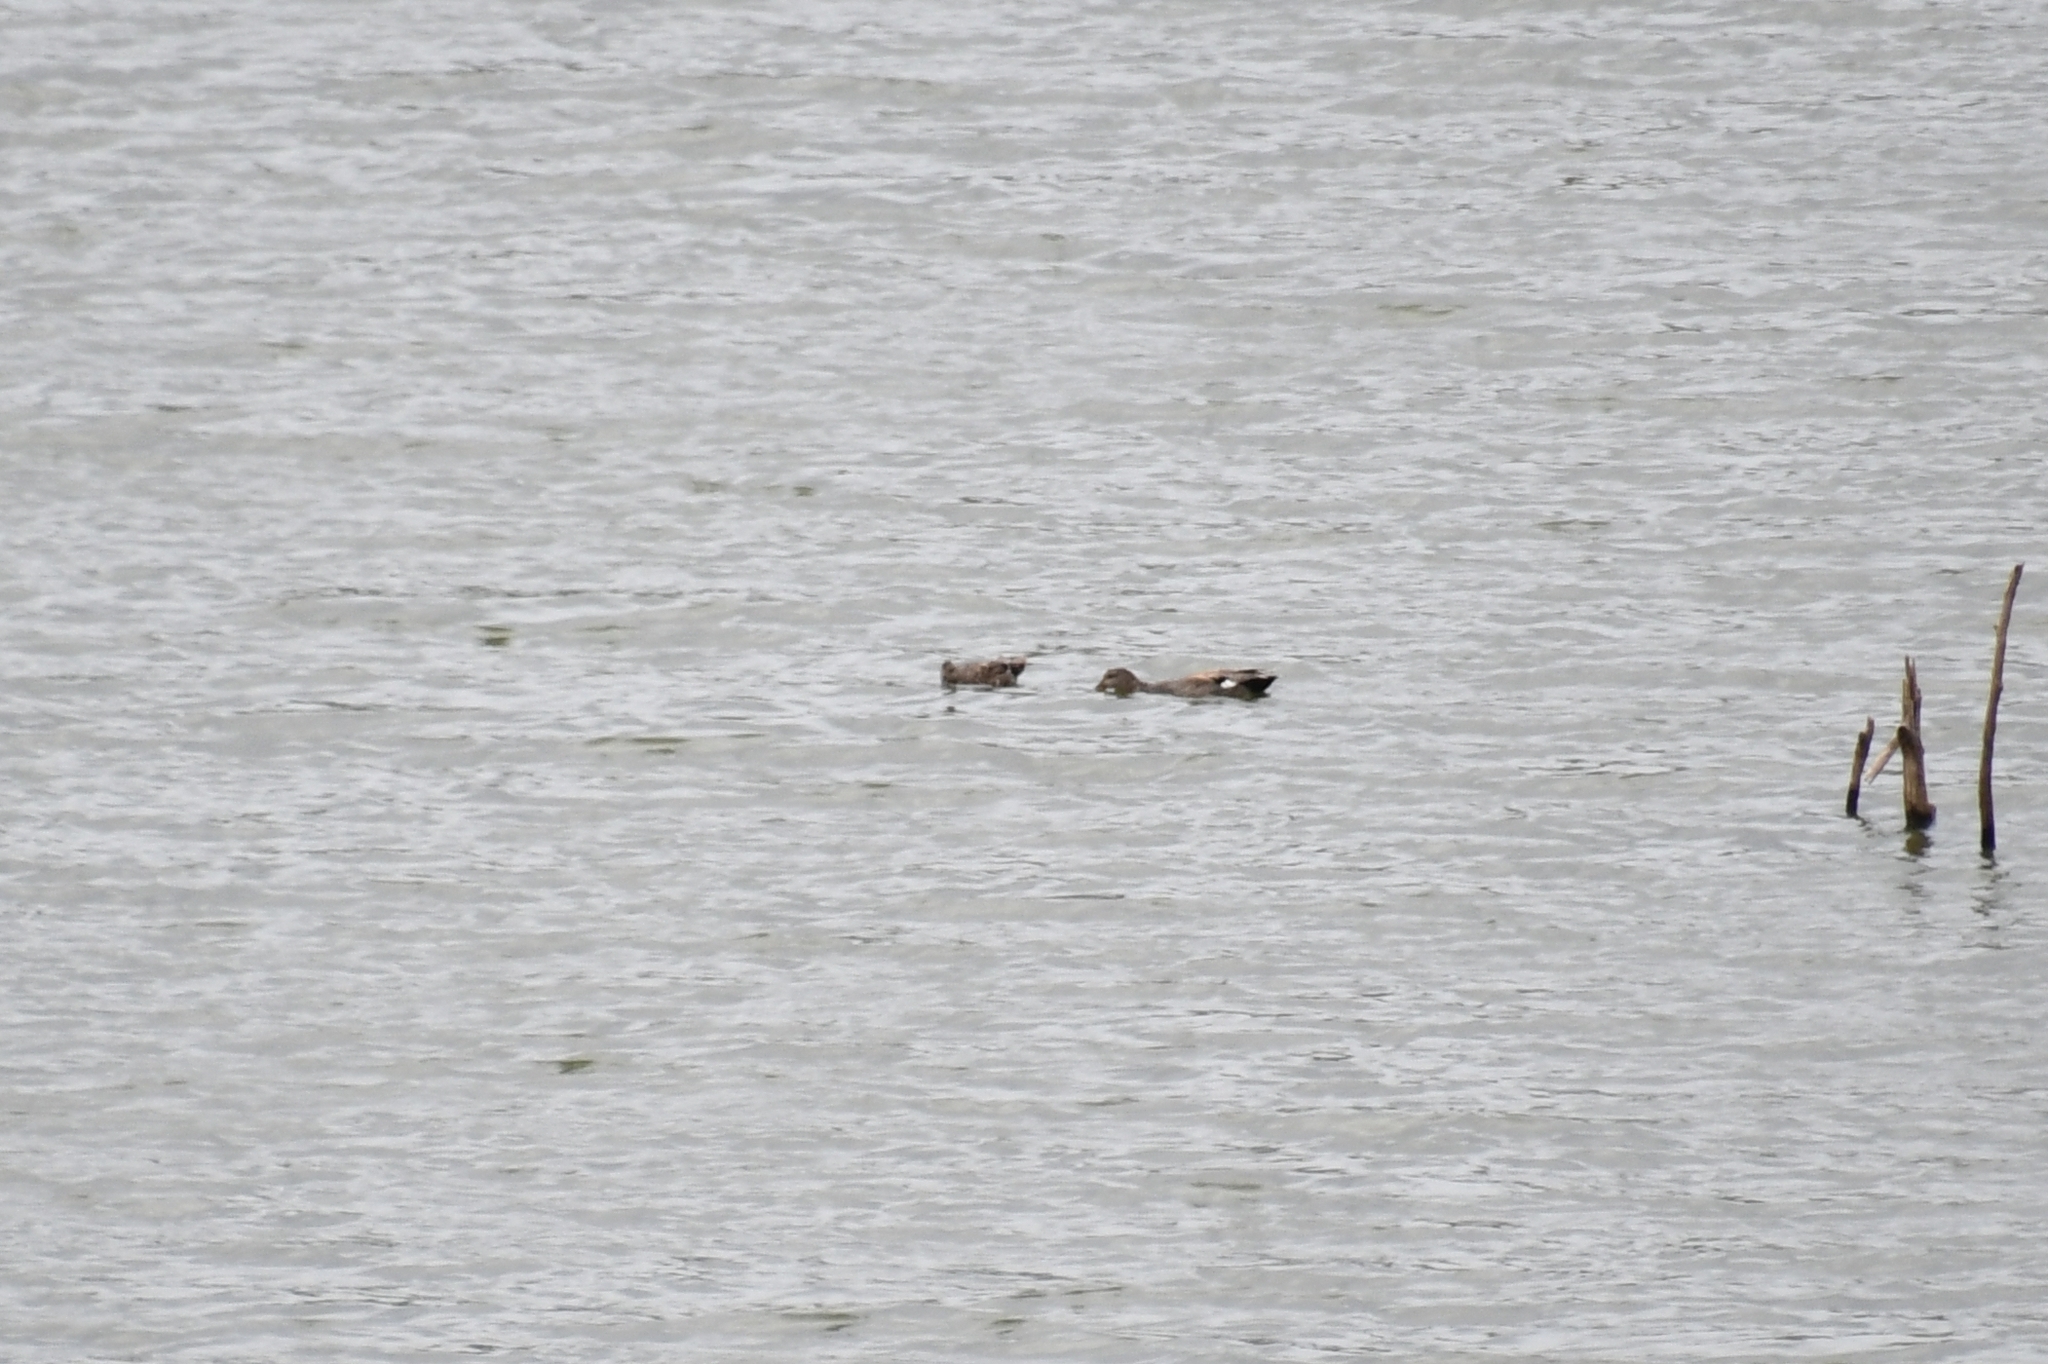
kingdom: Animalia
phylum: Chordata
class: Aves
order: Anseriformes
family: Anatidae
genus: Mareca
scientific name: Mareca strepera
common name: Gadwall
